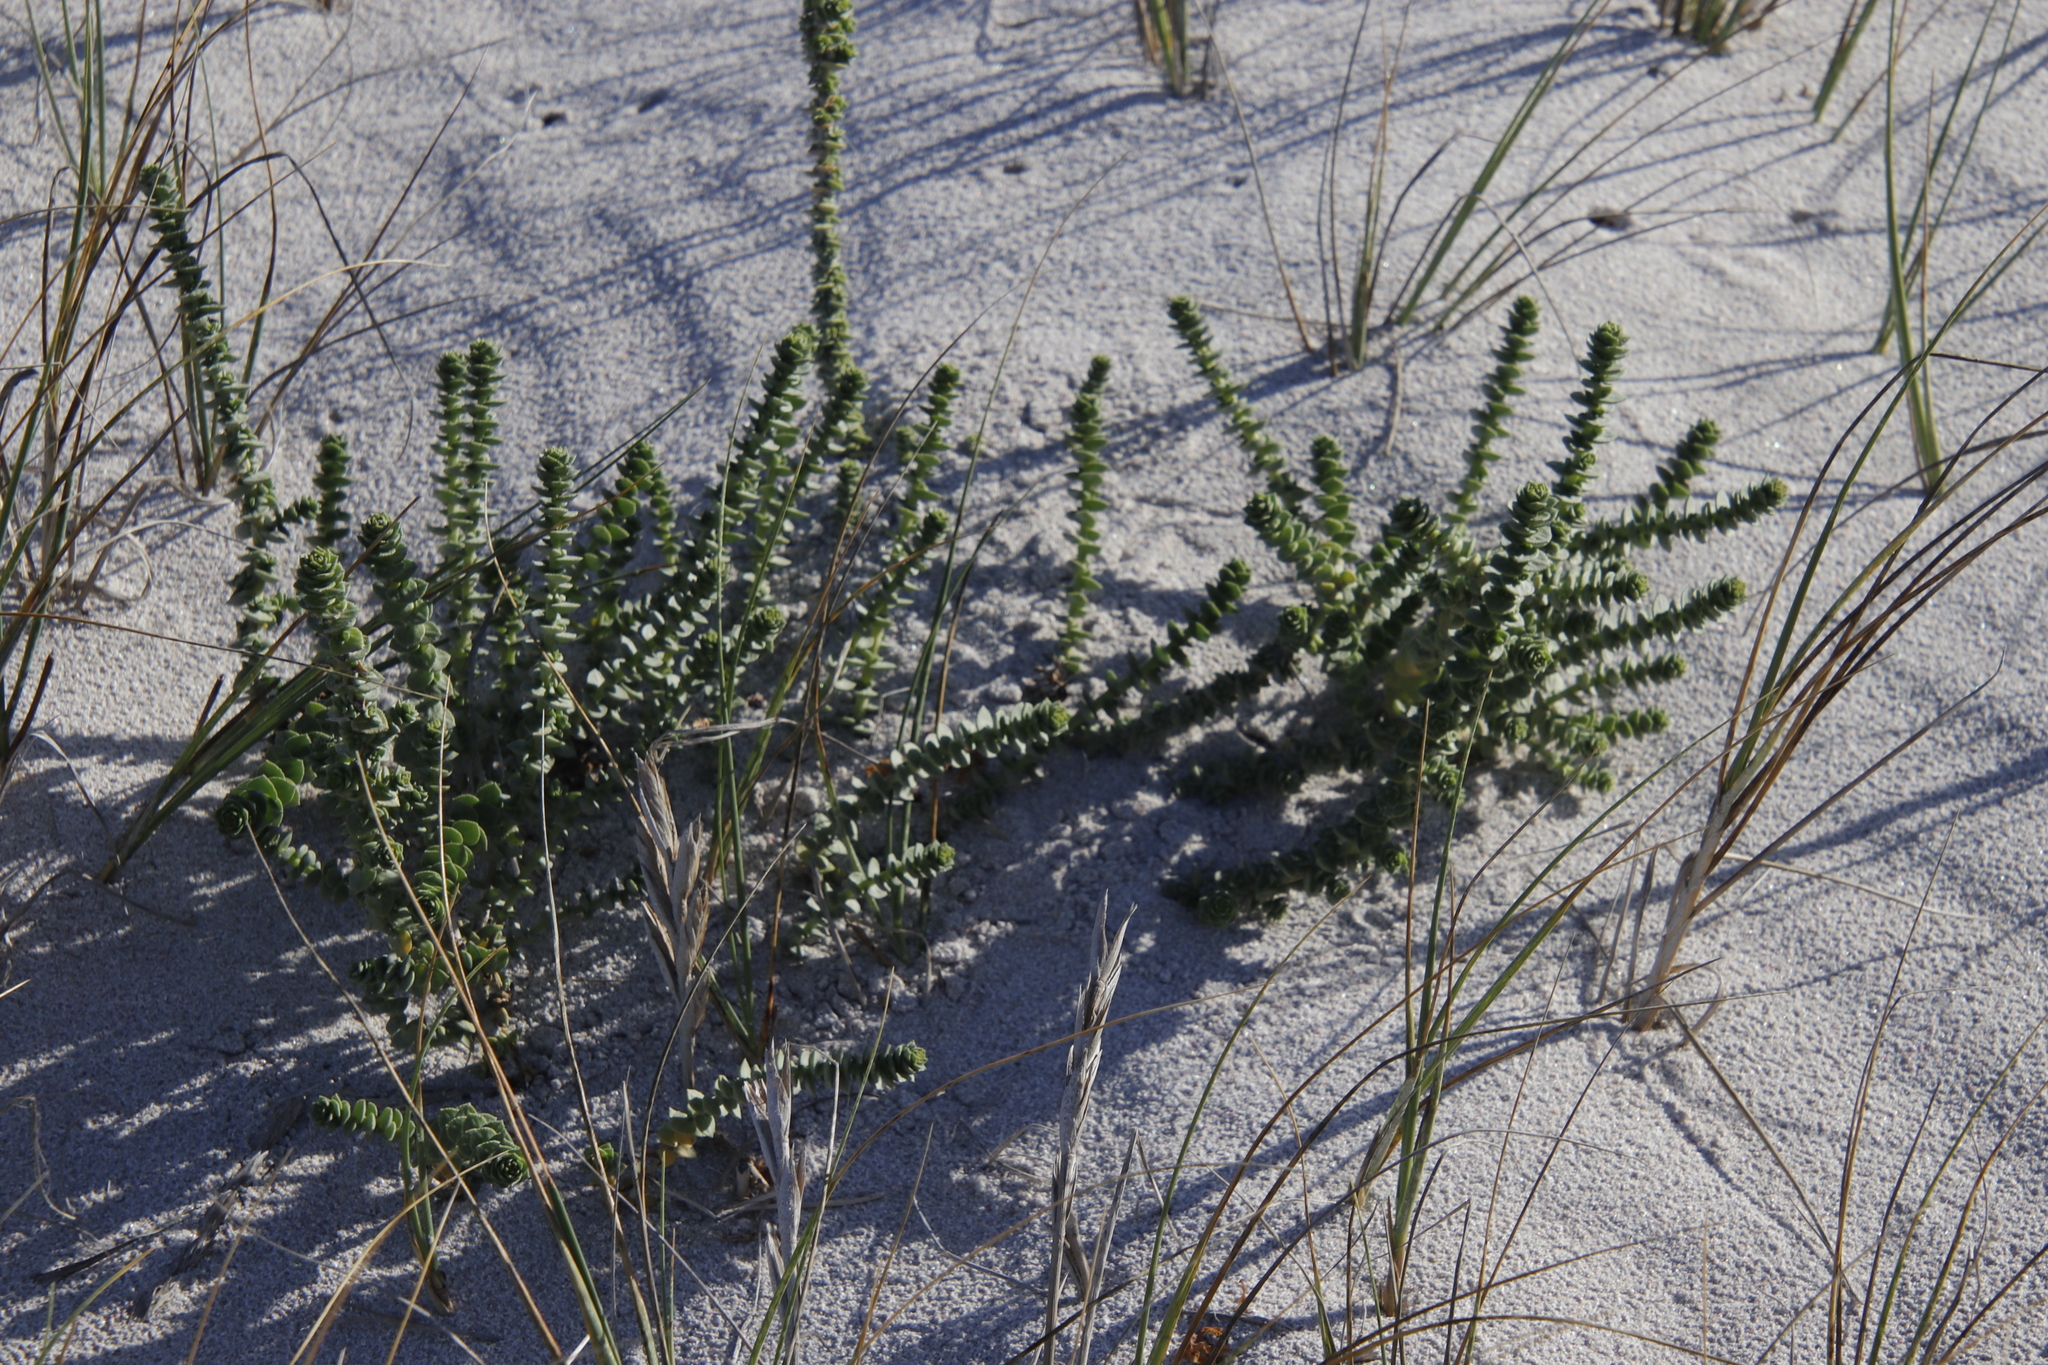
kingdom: Plantae
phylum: Tracheophyta
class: Magnoliopsida
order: Fagales
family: Myricaceae
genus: Morella
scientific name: Morella cordifolia
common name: Waxberry
